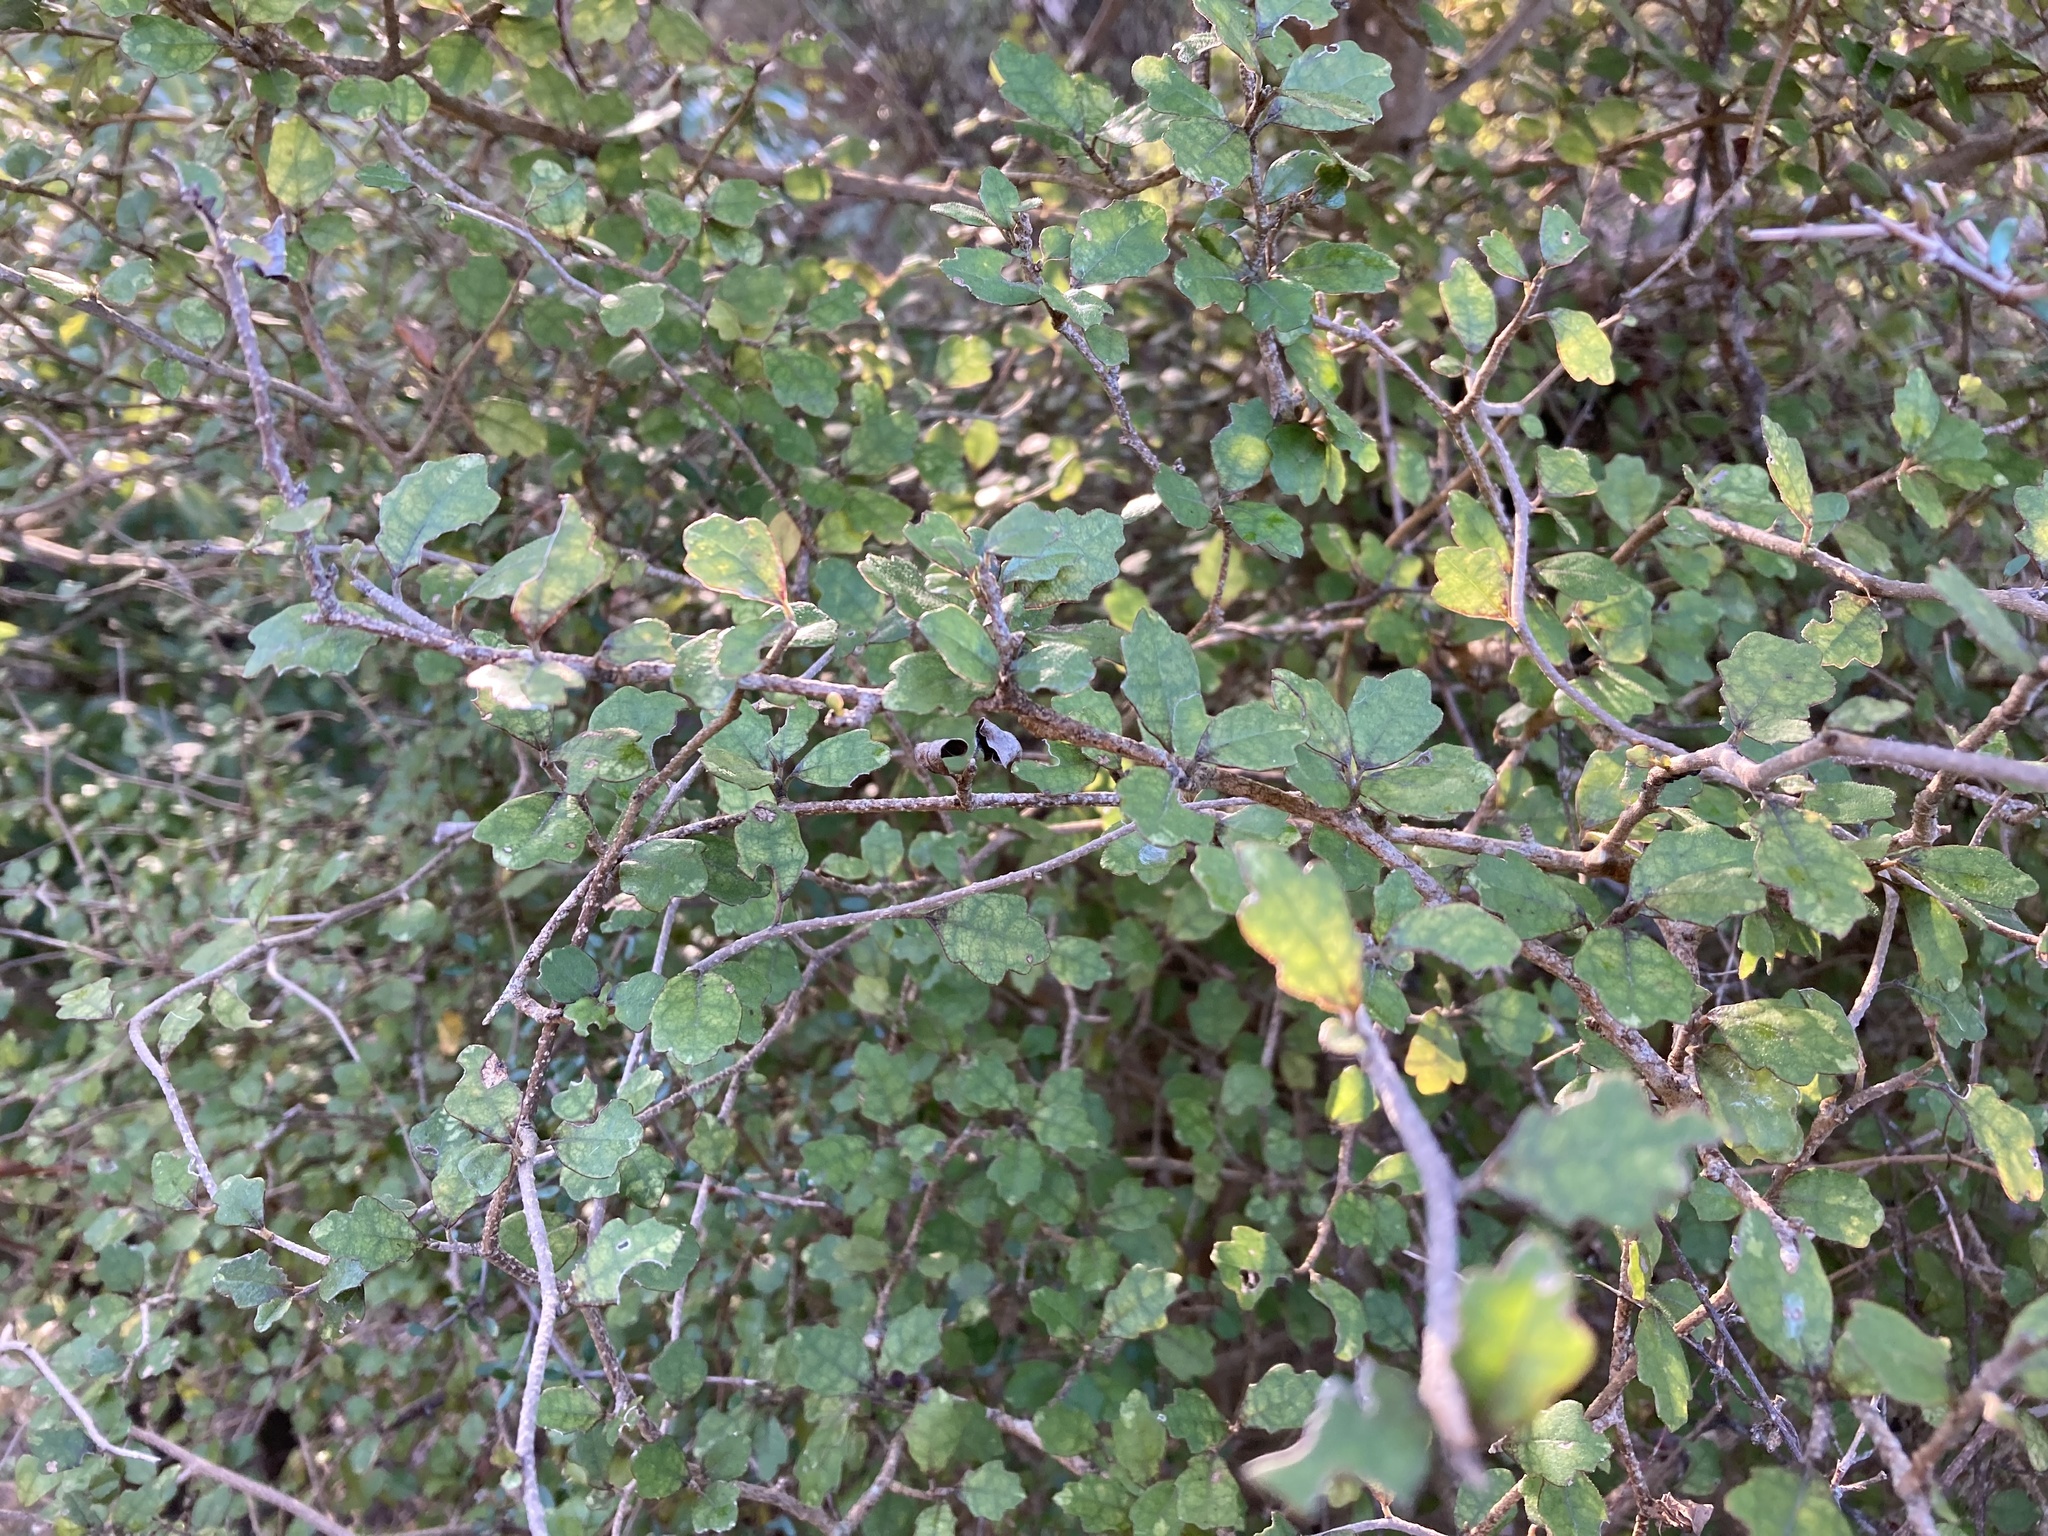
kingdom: Plantae
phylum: Tracheophyta
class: Magnoliopsida
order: Apiales
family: Pennantiaceae
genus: Pennantia
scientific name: Pennantia corymbosa
